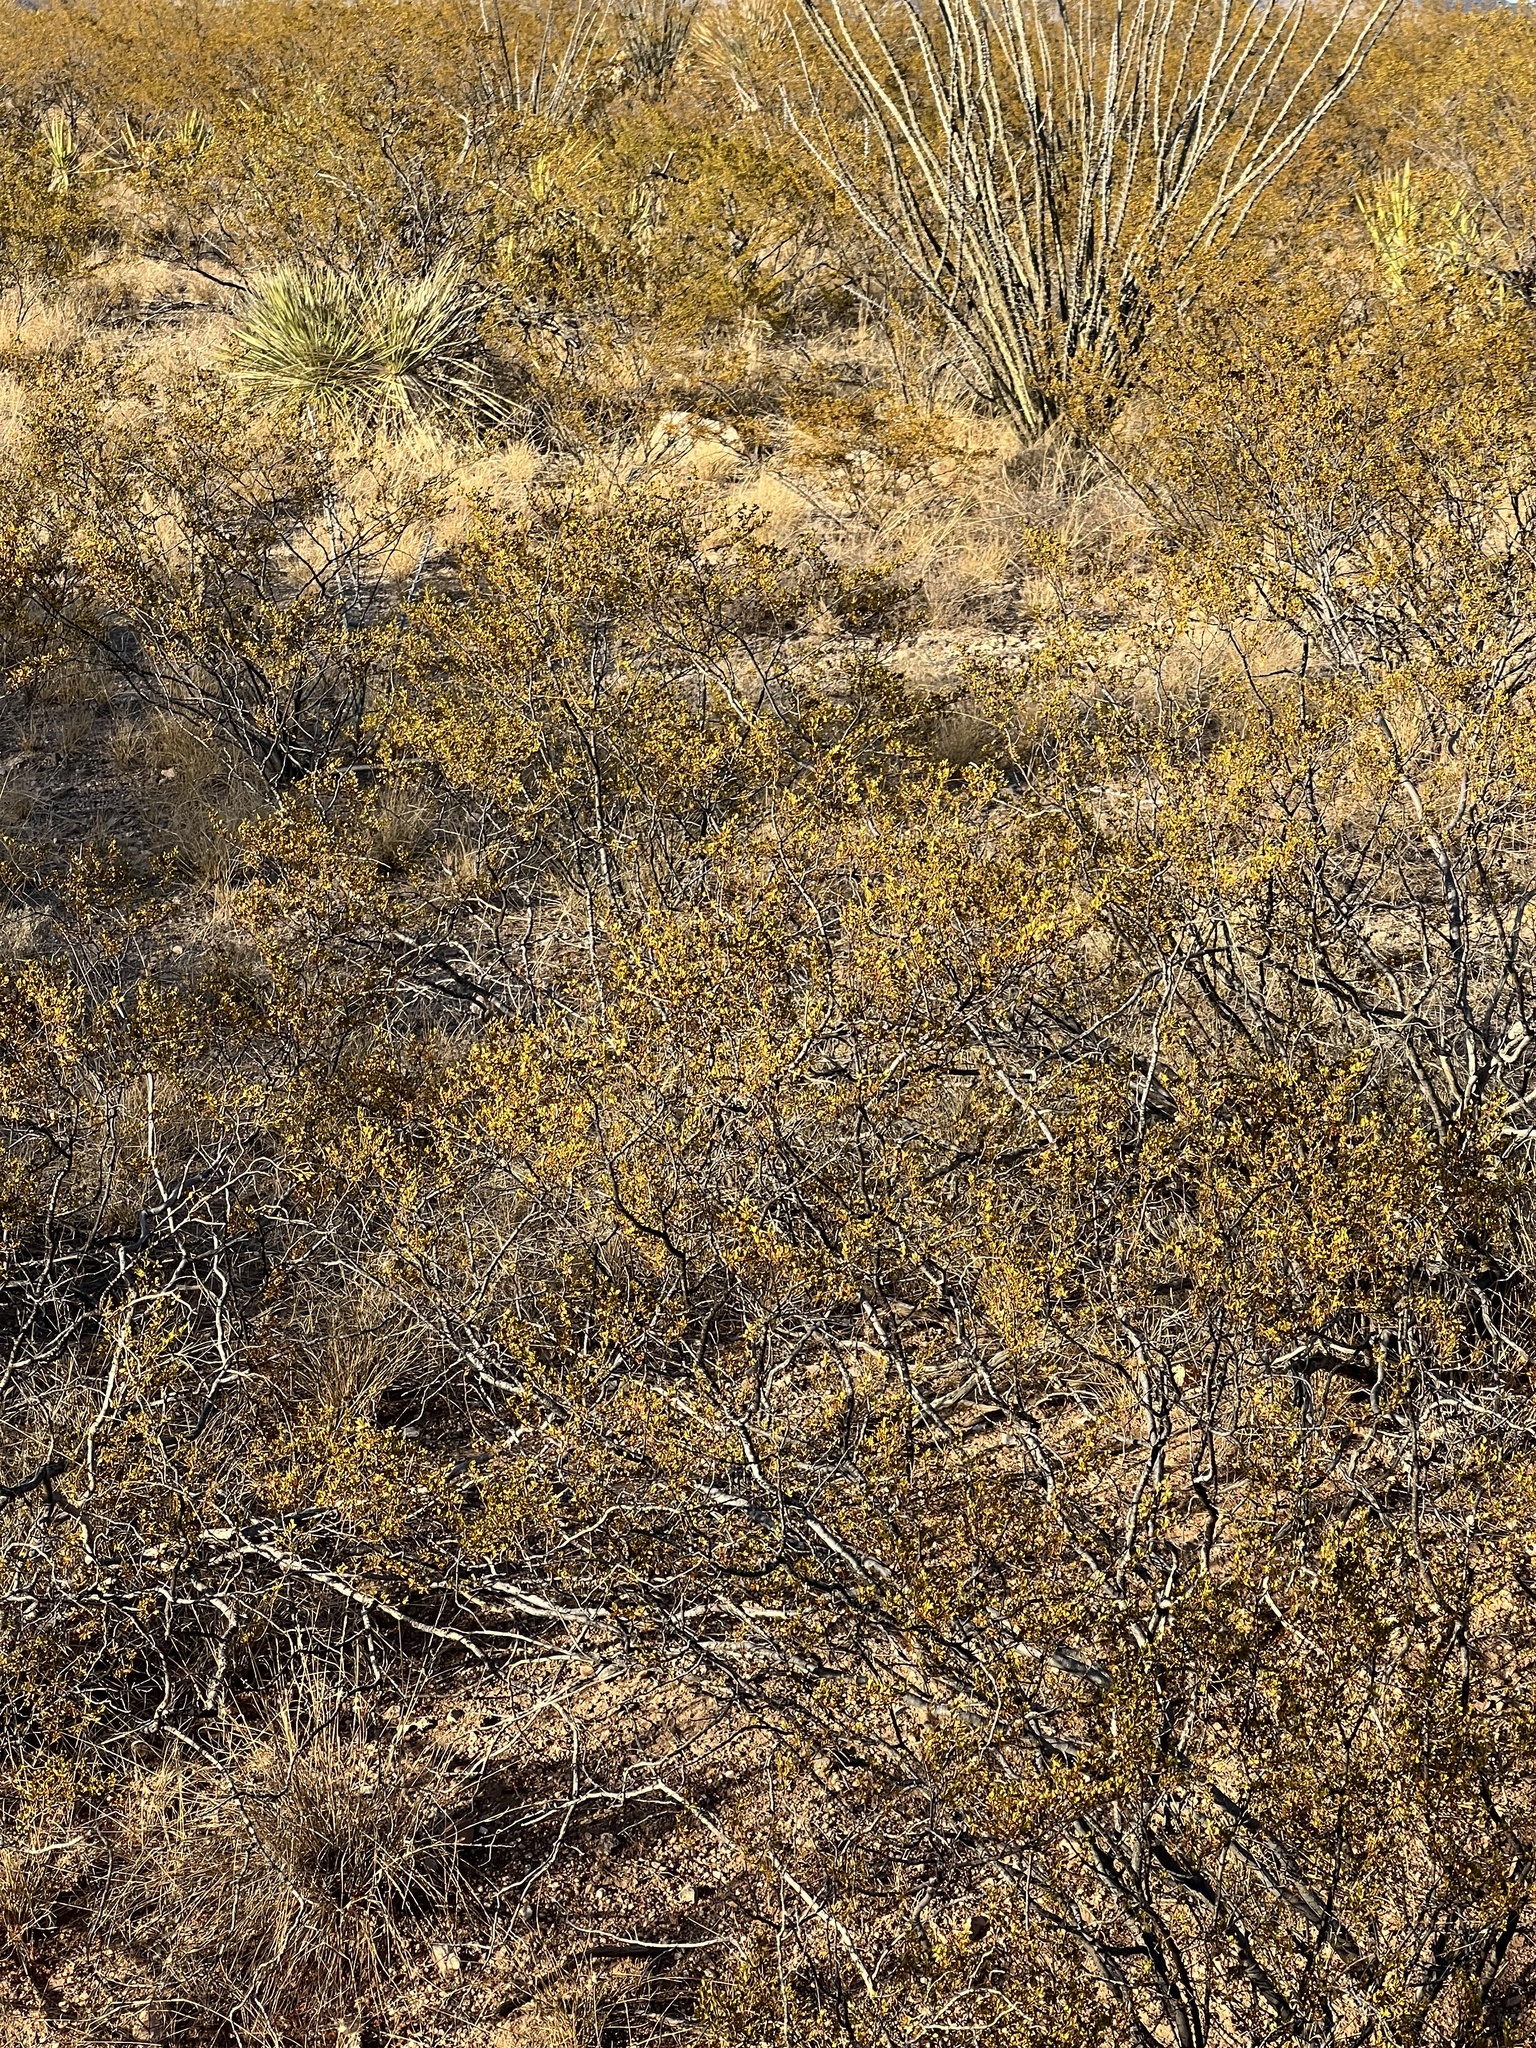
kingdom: Plantae
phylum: Tracheophyta
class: Magnoliopsida
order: Zygophyllales
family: Zygophyllaceae
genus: Larrea
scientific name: Larrea tridentata
